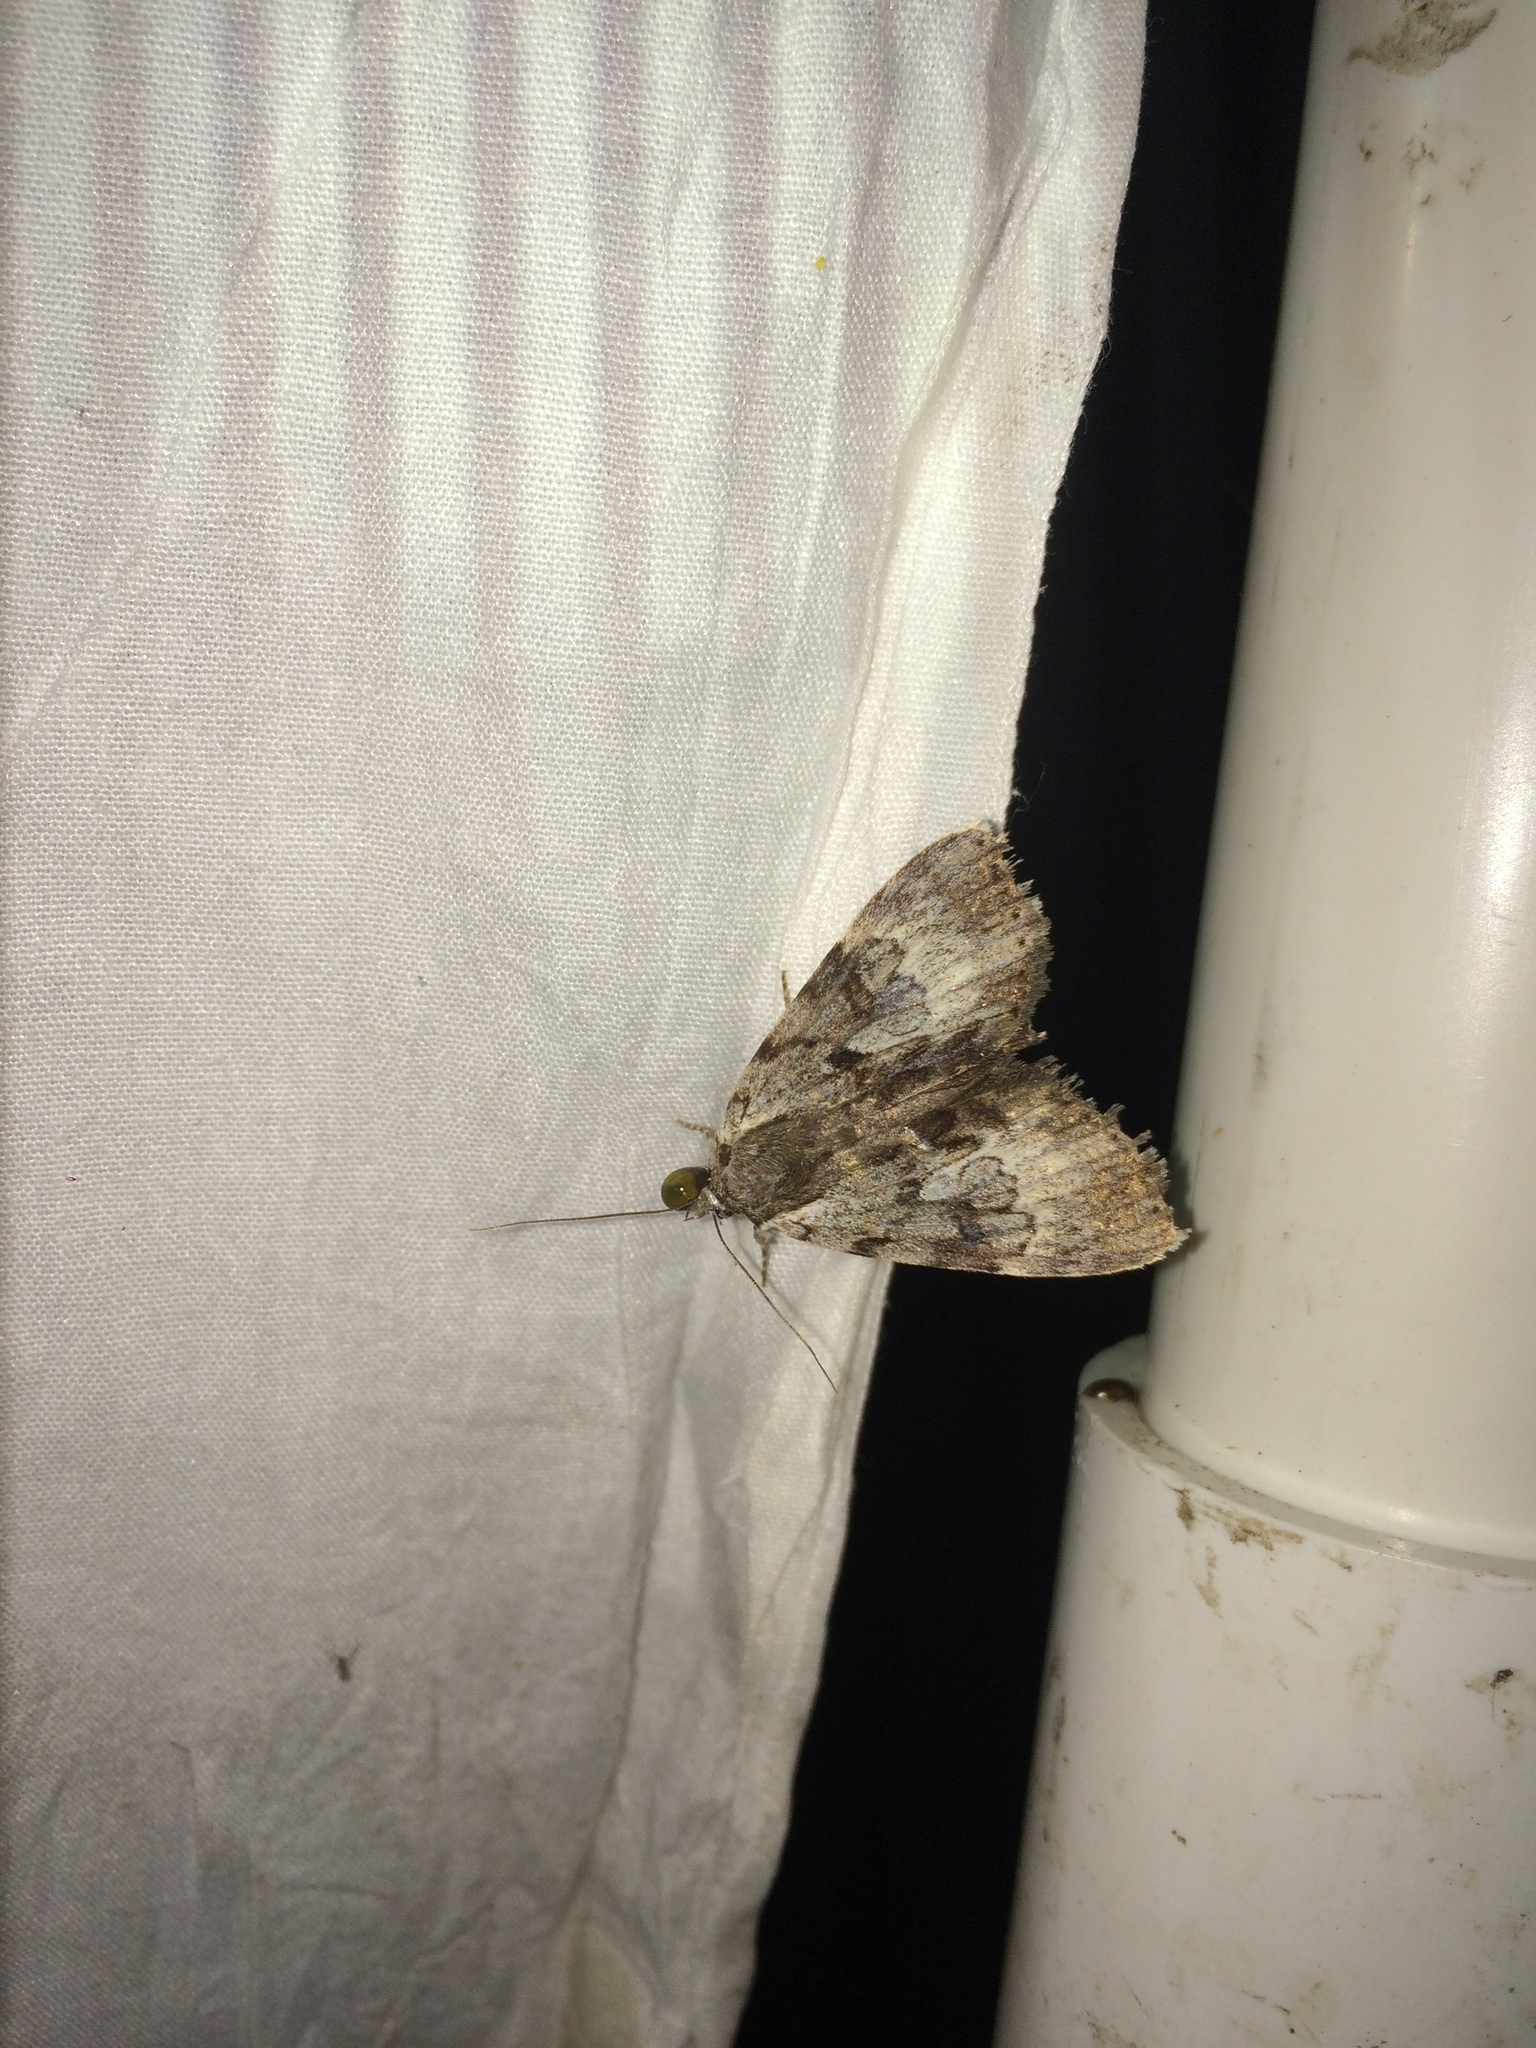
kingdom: Animalia
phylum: Arthropoda
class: Insecta
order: Lepidoptera
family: Erebidae
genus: Catocala
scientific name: Catocala andromedae
